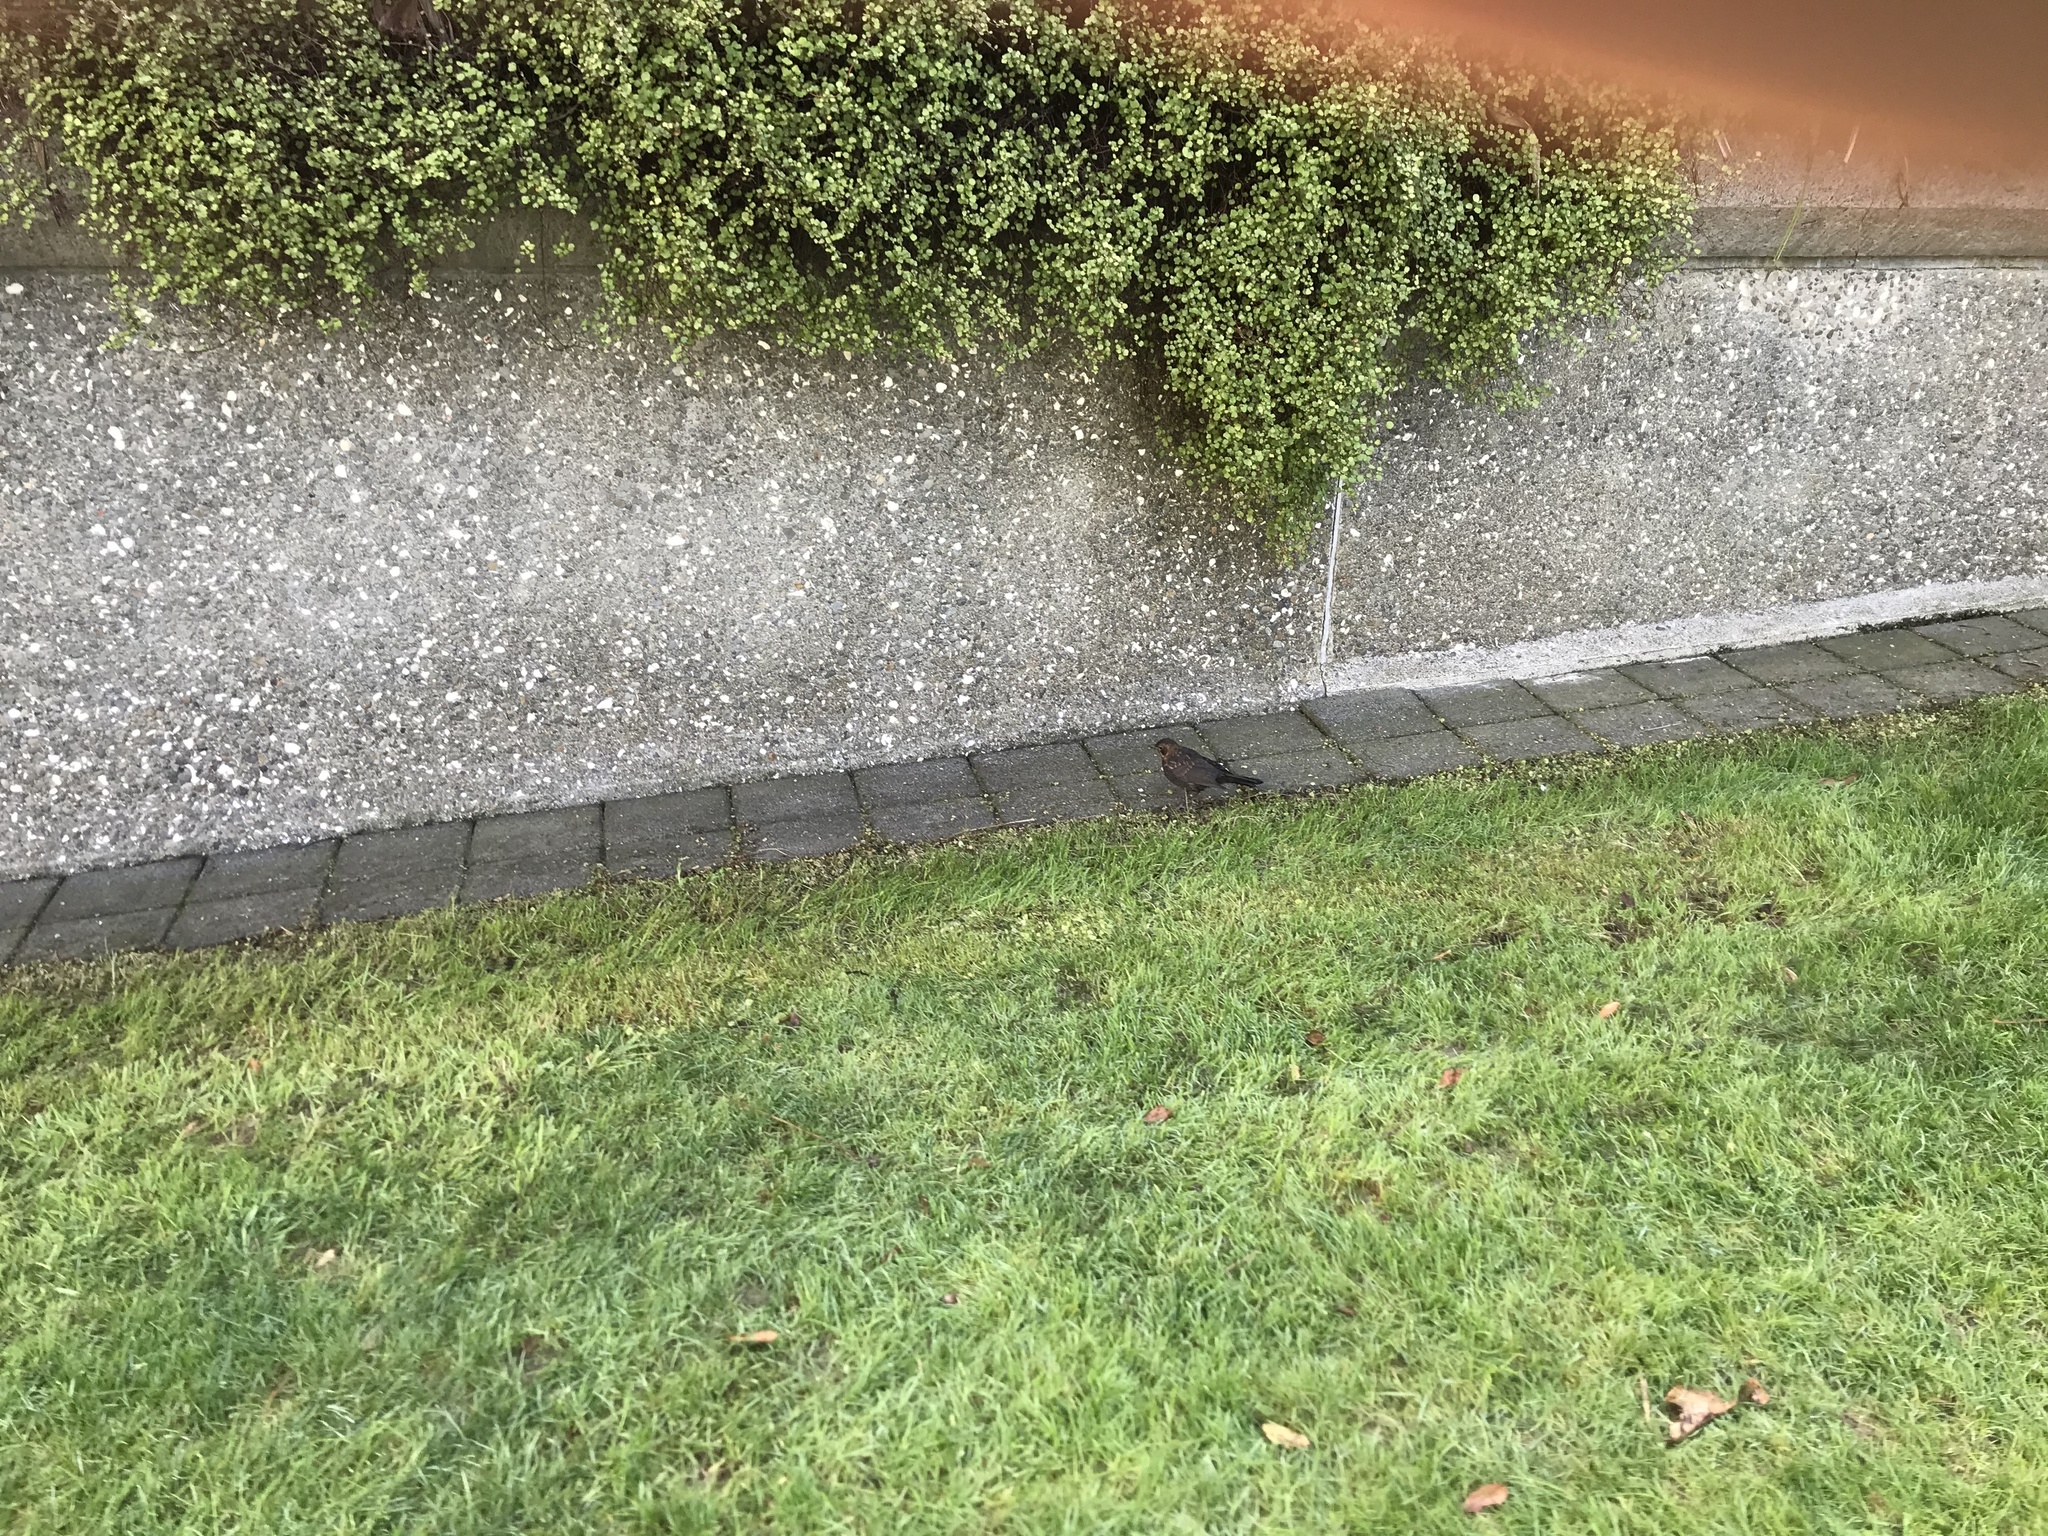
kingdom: Animalia
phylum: Chordata
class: Aves
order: Passeriformes
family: Turdidae
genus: Turdus
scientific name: Turdus merula
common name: Common blackbird
